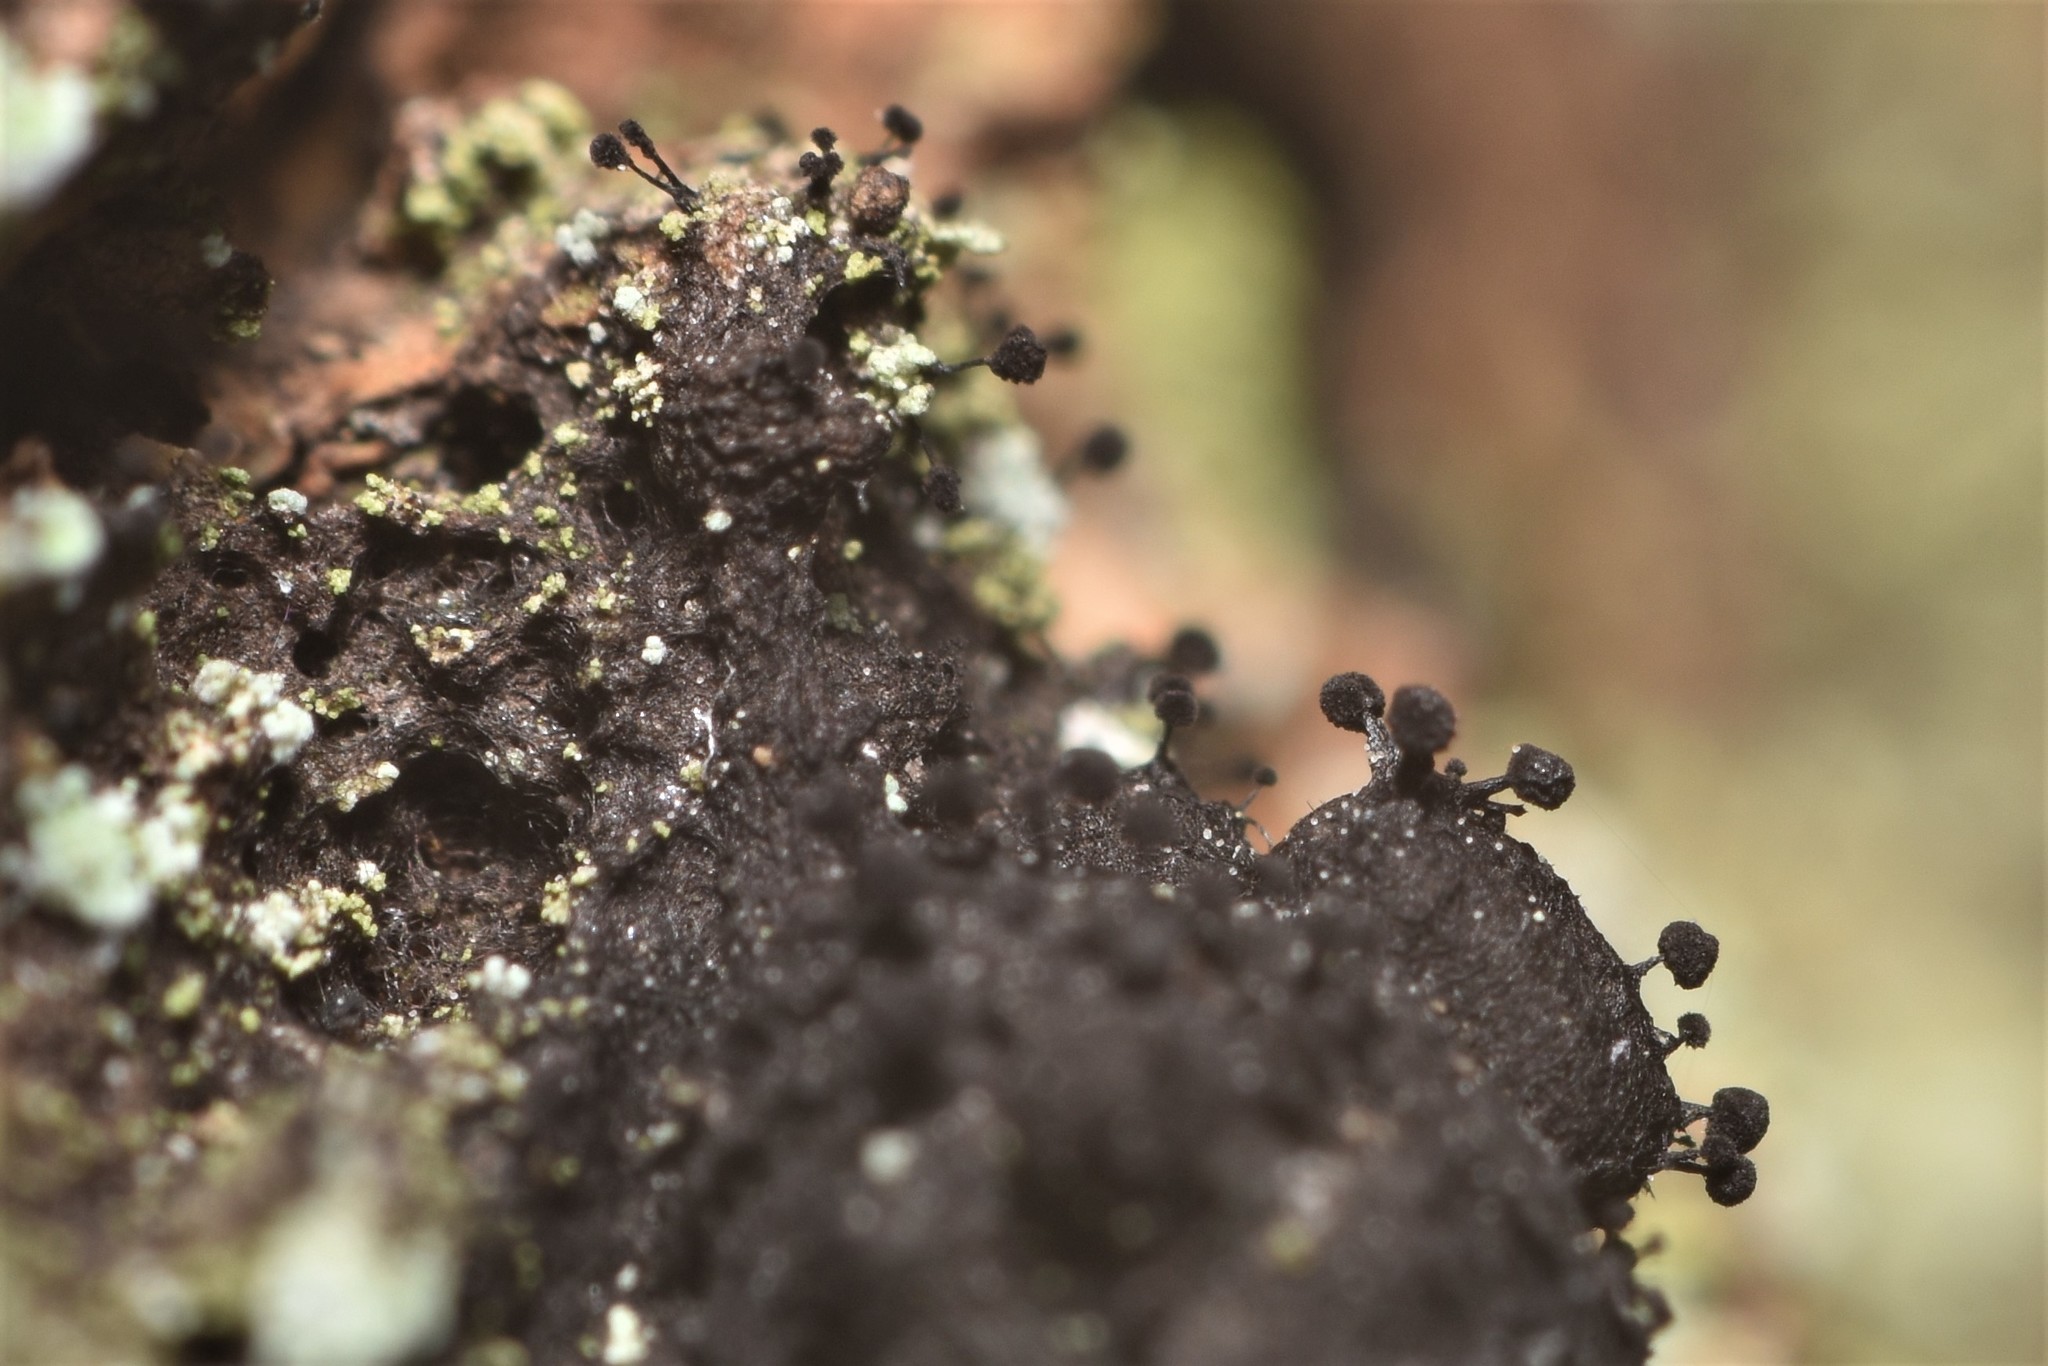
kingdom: Fungi
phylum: Ascomycota
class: Leotiomycetes
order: Helotiales
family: Amorphothecaceae
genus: Sorocybe
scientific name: Sorocybe resinae
